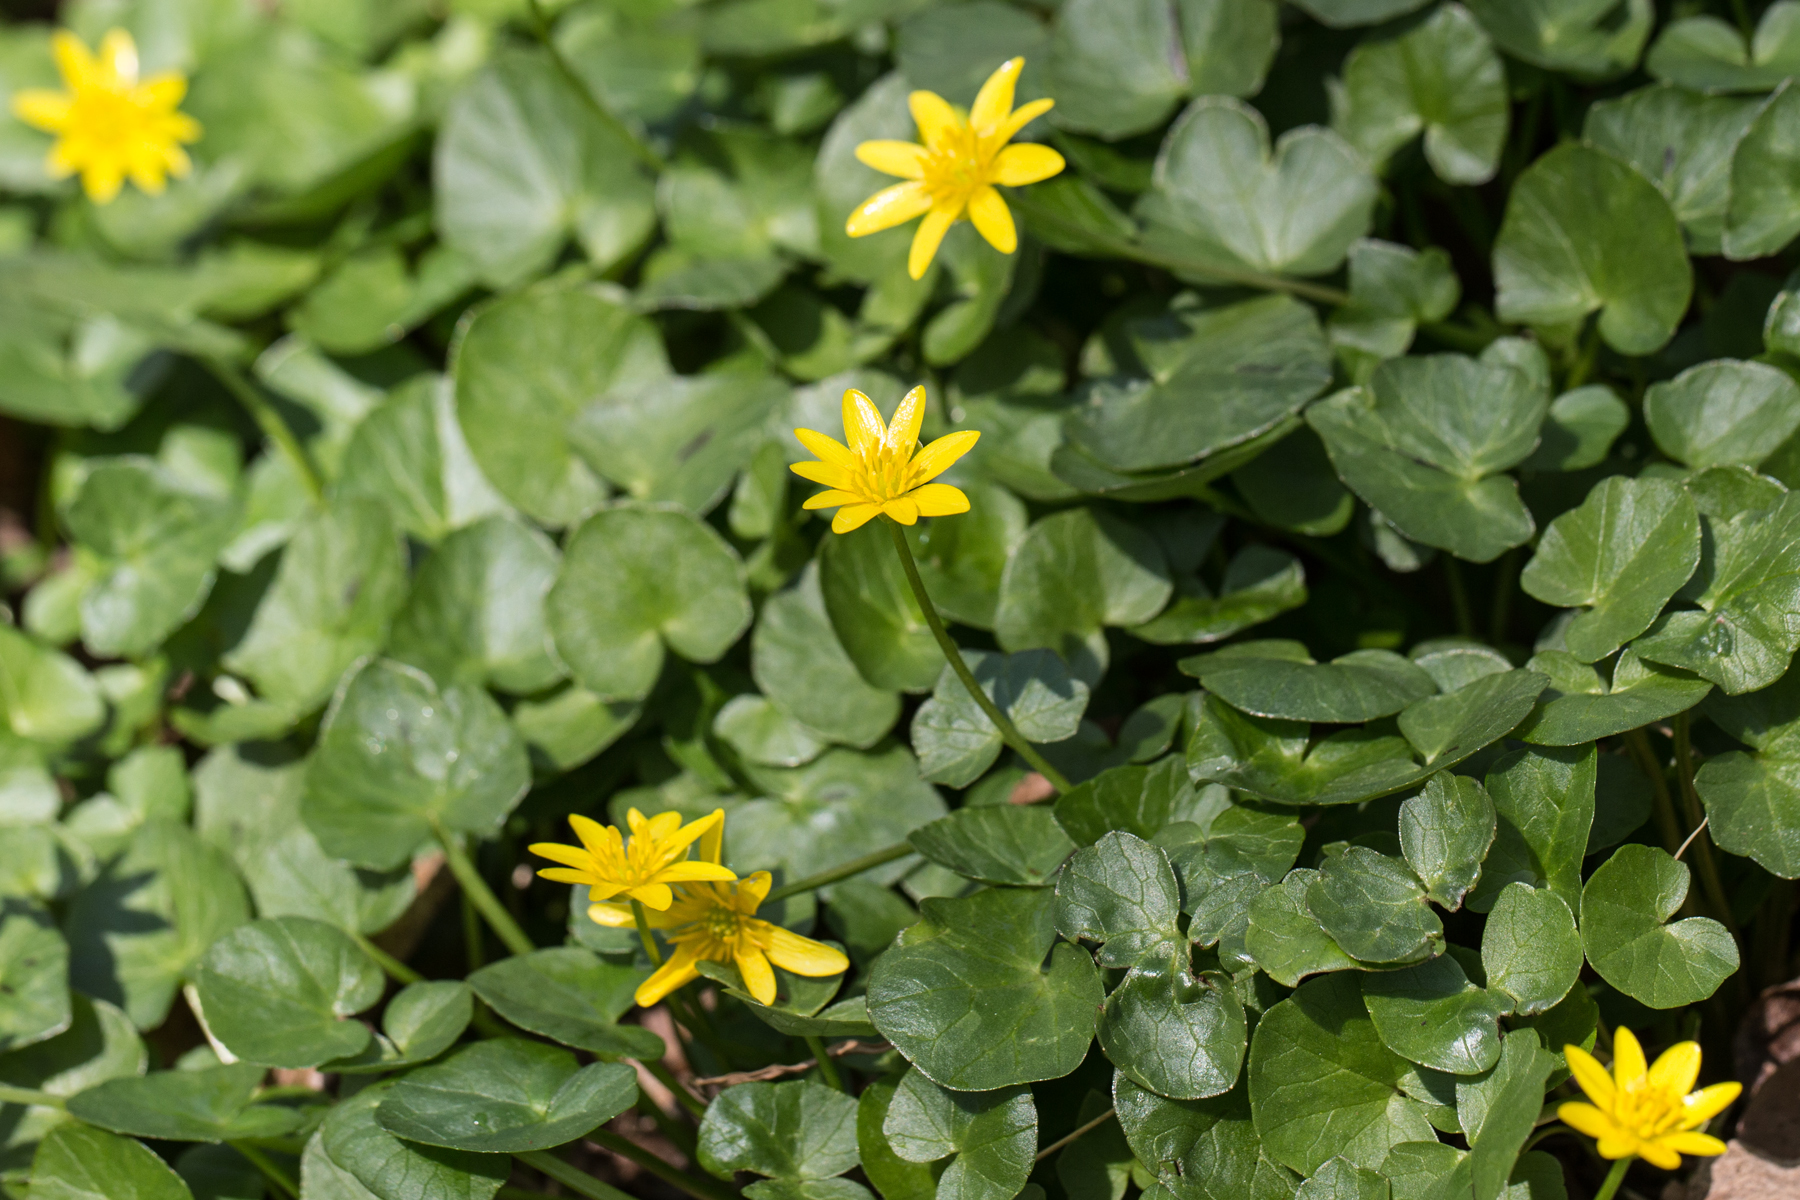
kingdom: Plantae
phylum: Tracheophyta
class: Magnoliopsida
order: Ranunculales
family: Ranunculaceae
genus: Ficaria
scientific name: Ficaria verna
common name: Lesser celandine
